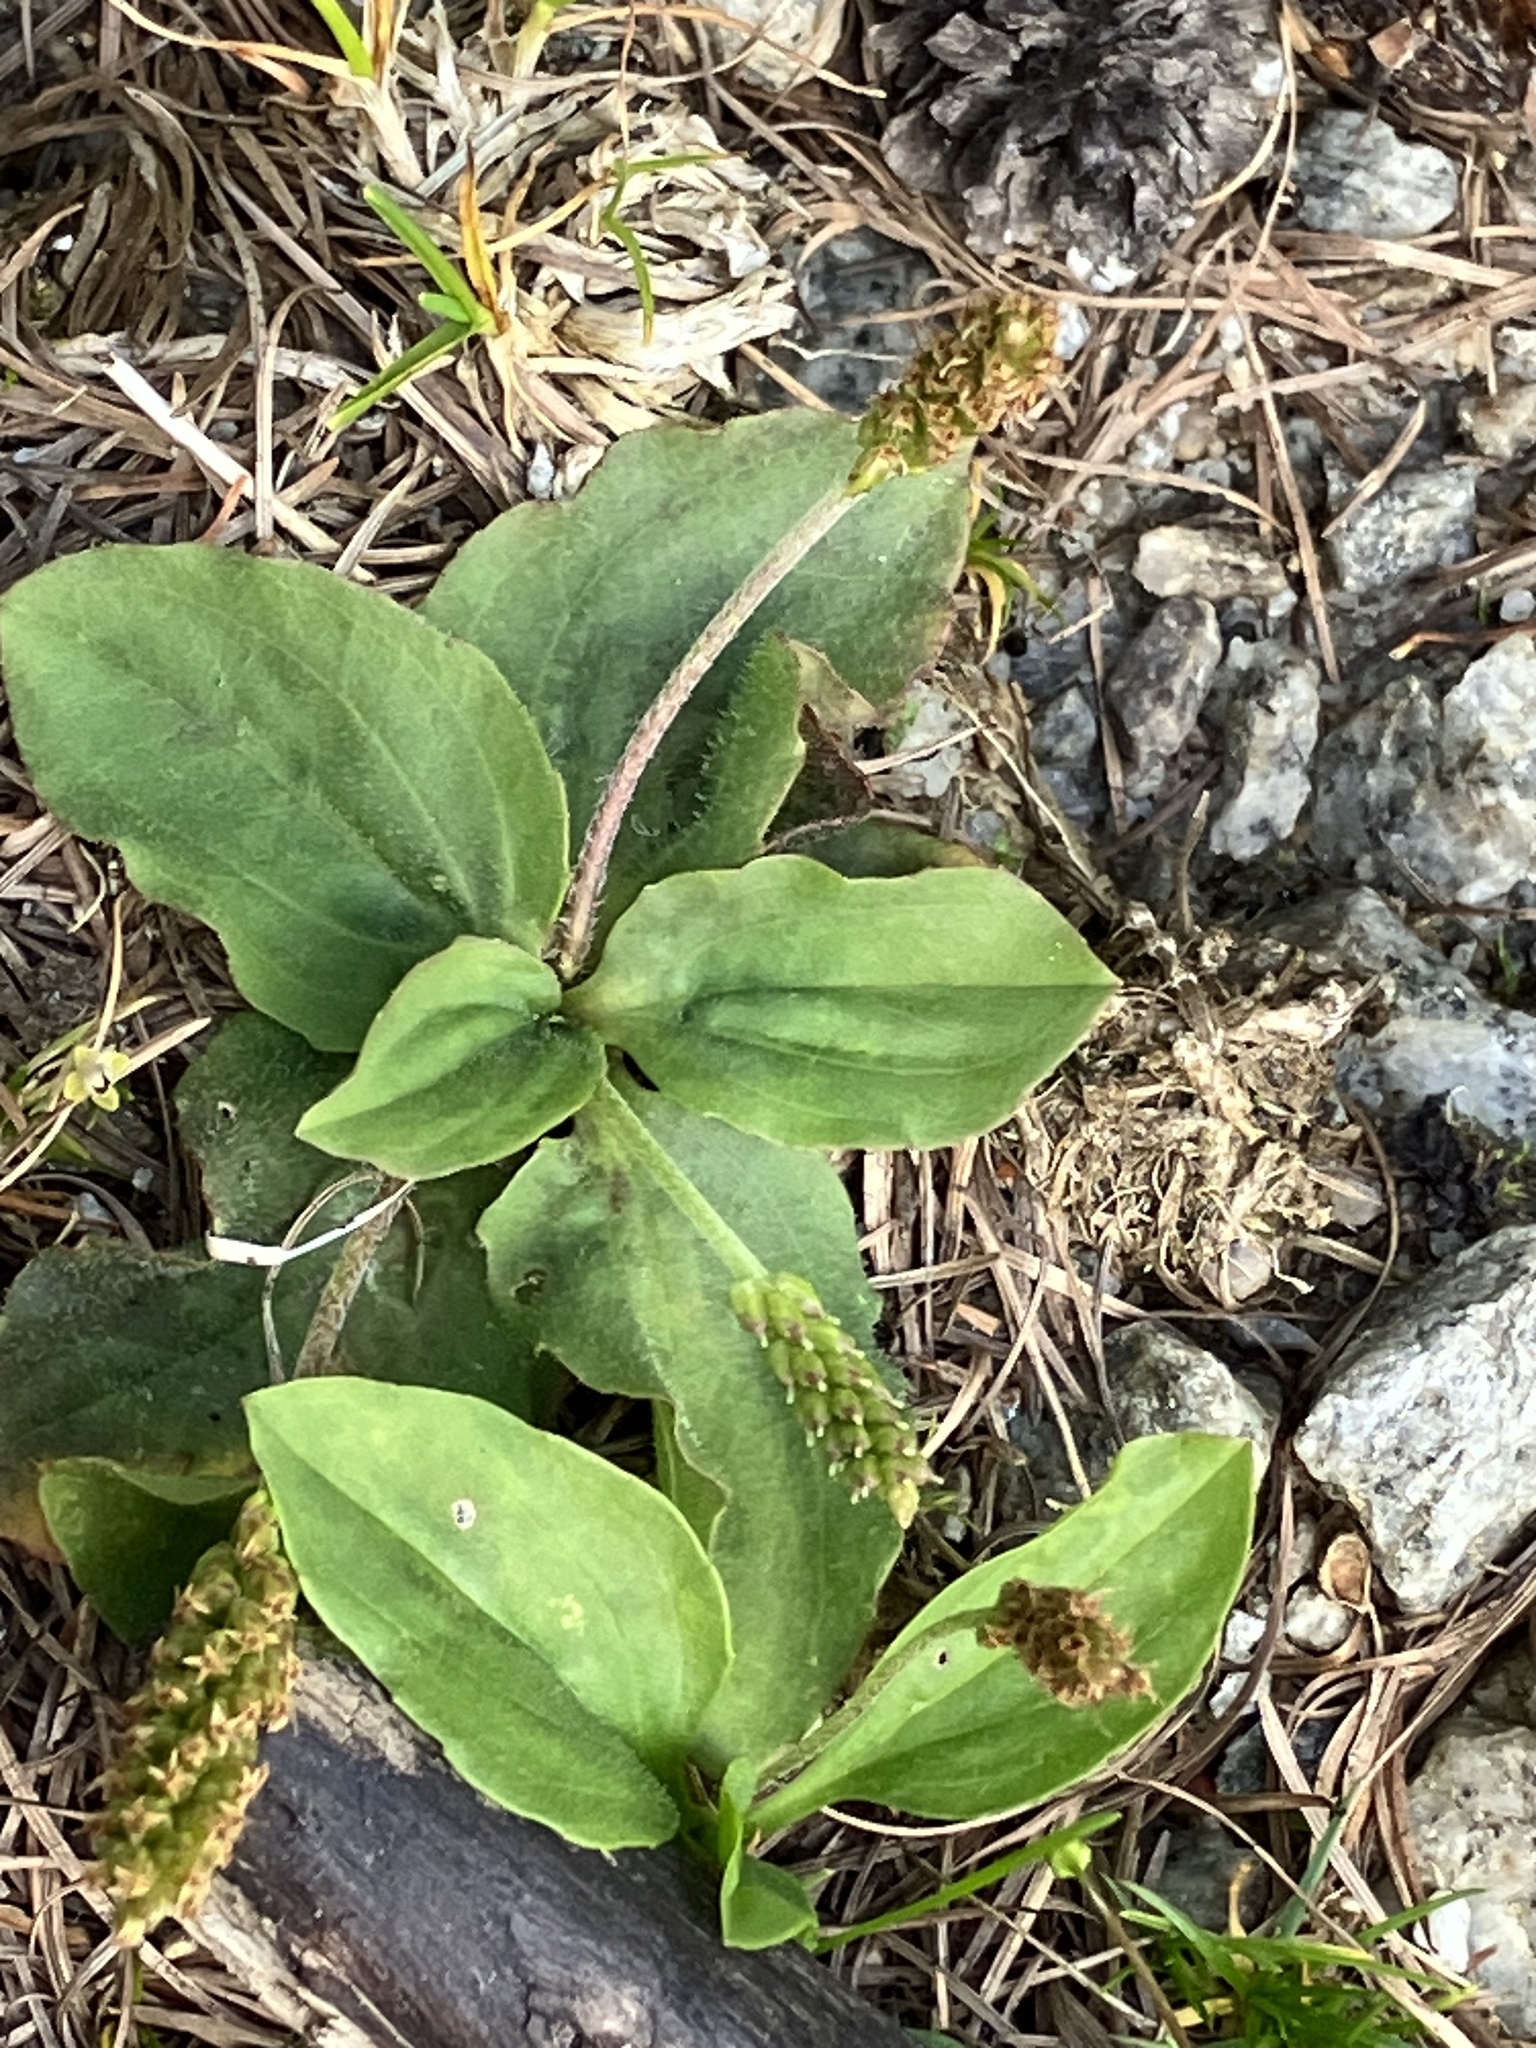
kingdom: Plantae
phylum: Tracheophyta
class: Magnoliopsida
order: Lamiales
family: Plantaginaceae
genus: Plantago
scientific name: Plantago major
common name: Common plantain
